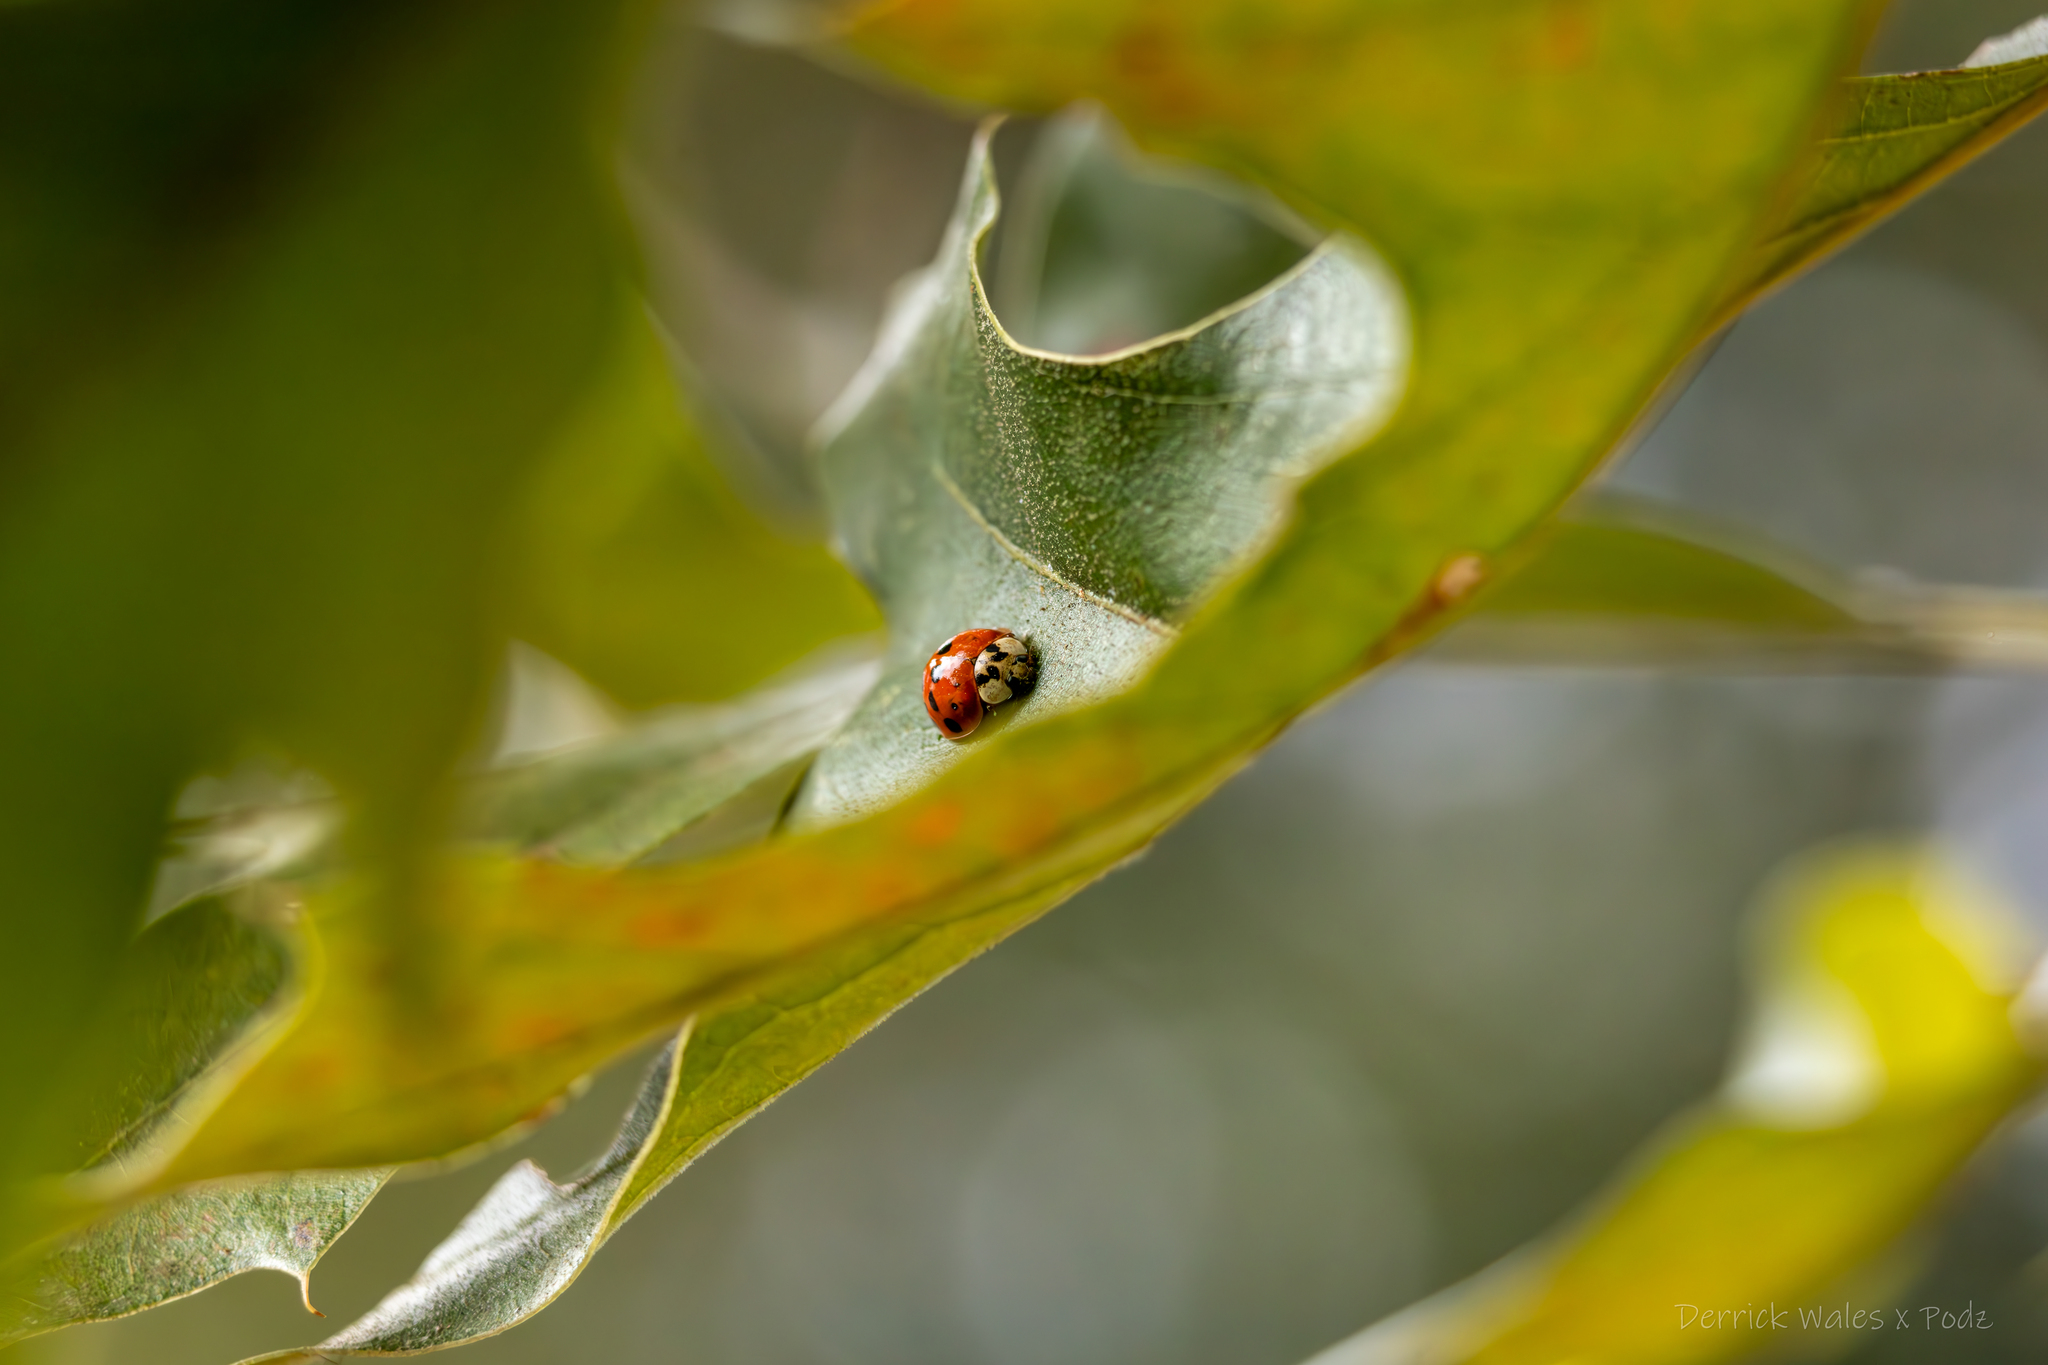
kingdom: Animalia
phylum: Arthropoda
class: Insecta
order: Coleoptera
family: Coccinellidae
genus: Harmonia
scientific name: Harmonia axyridis
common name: Harlequin ladybird
